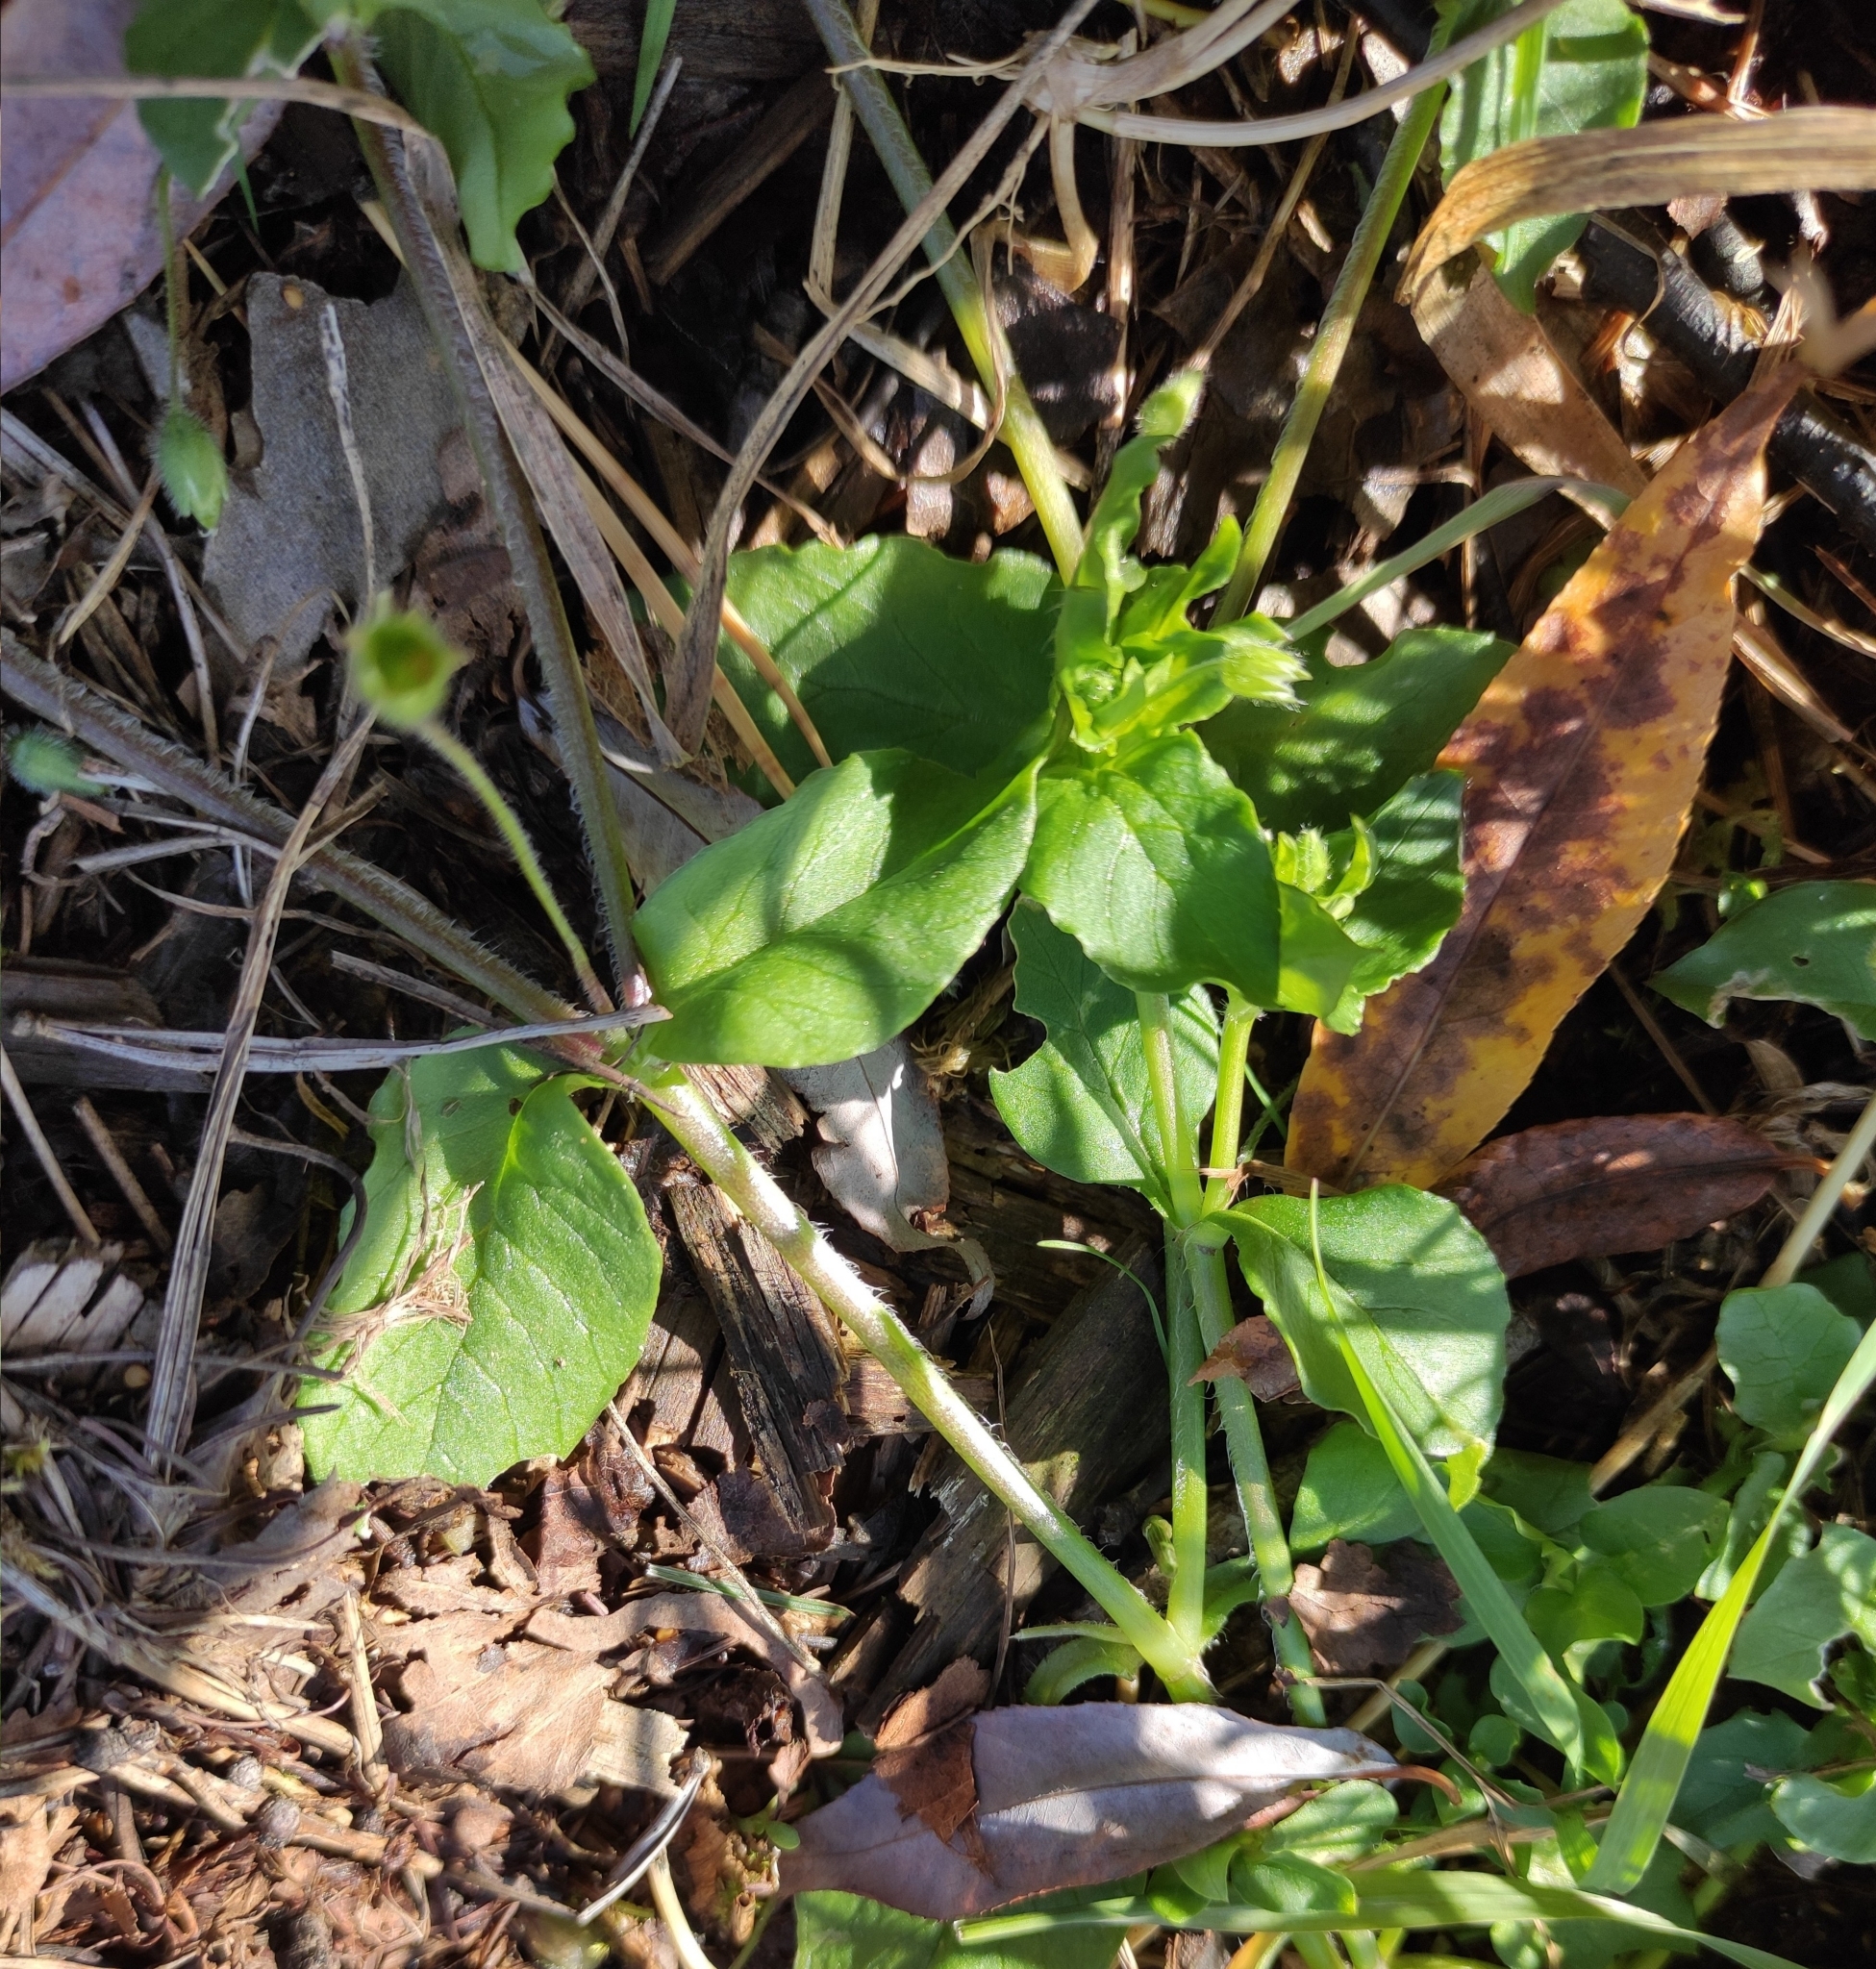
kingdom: Plantae
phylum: Tracheophyta
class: Magnoliopsida
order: Caryophyllales
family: Caryophyllaceae
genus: Stellaria
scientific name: Stellaria media
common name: Common chickweed
